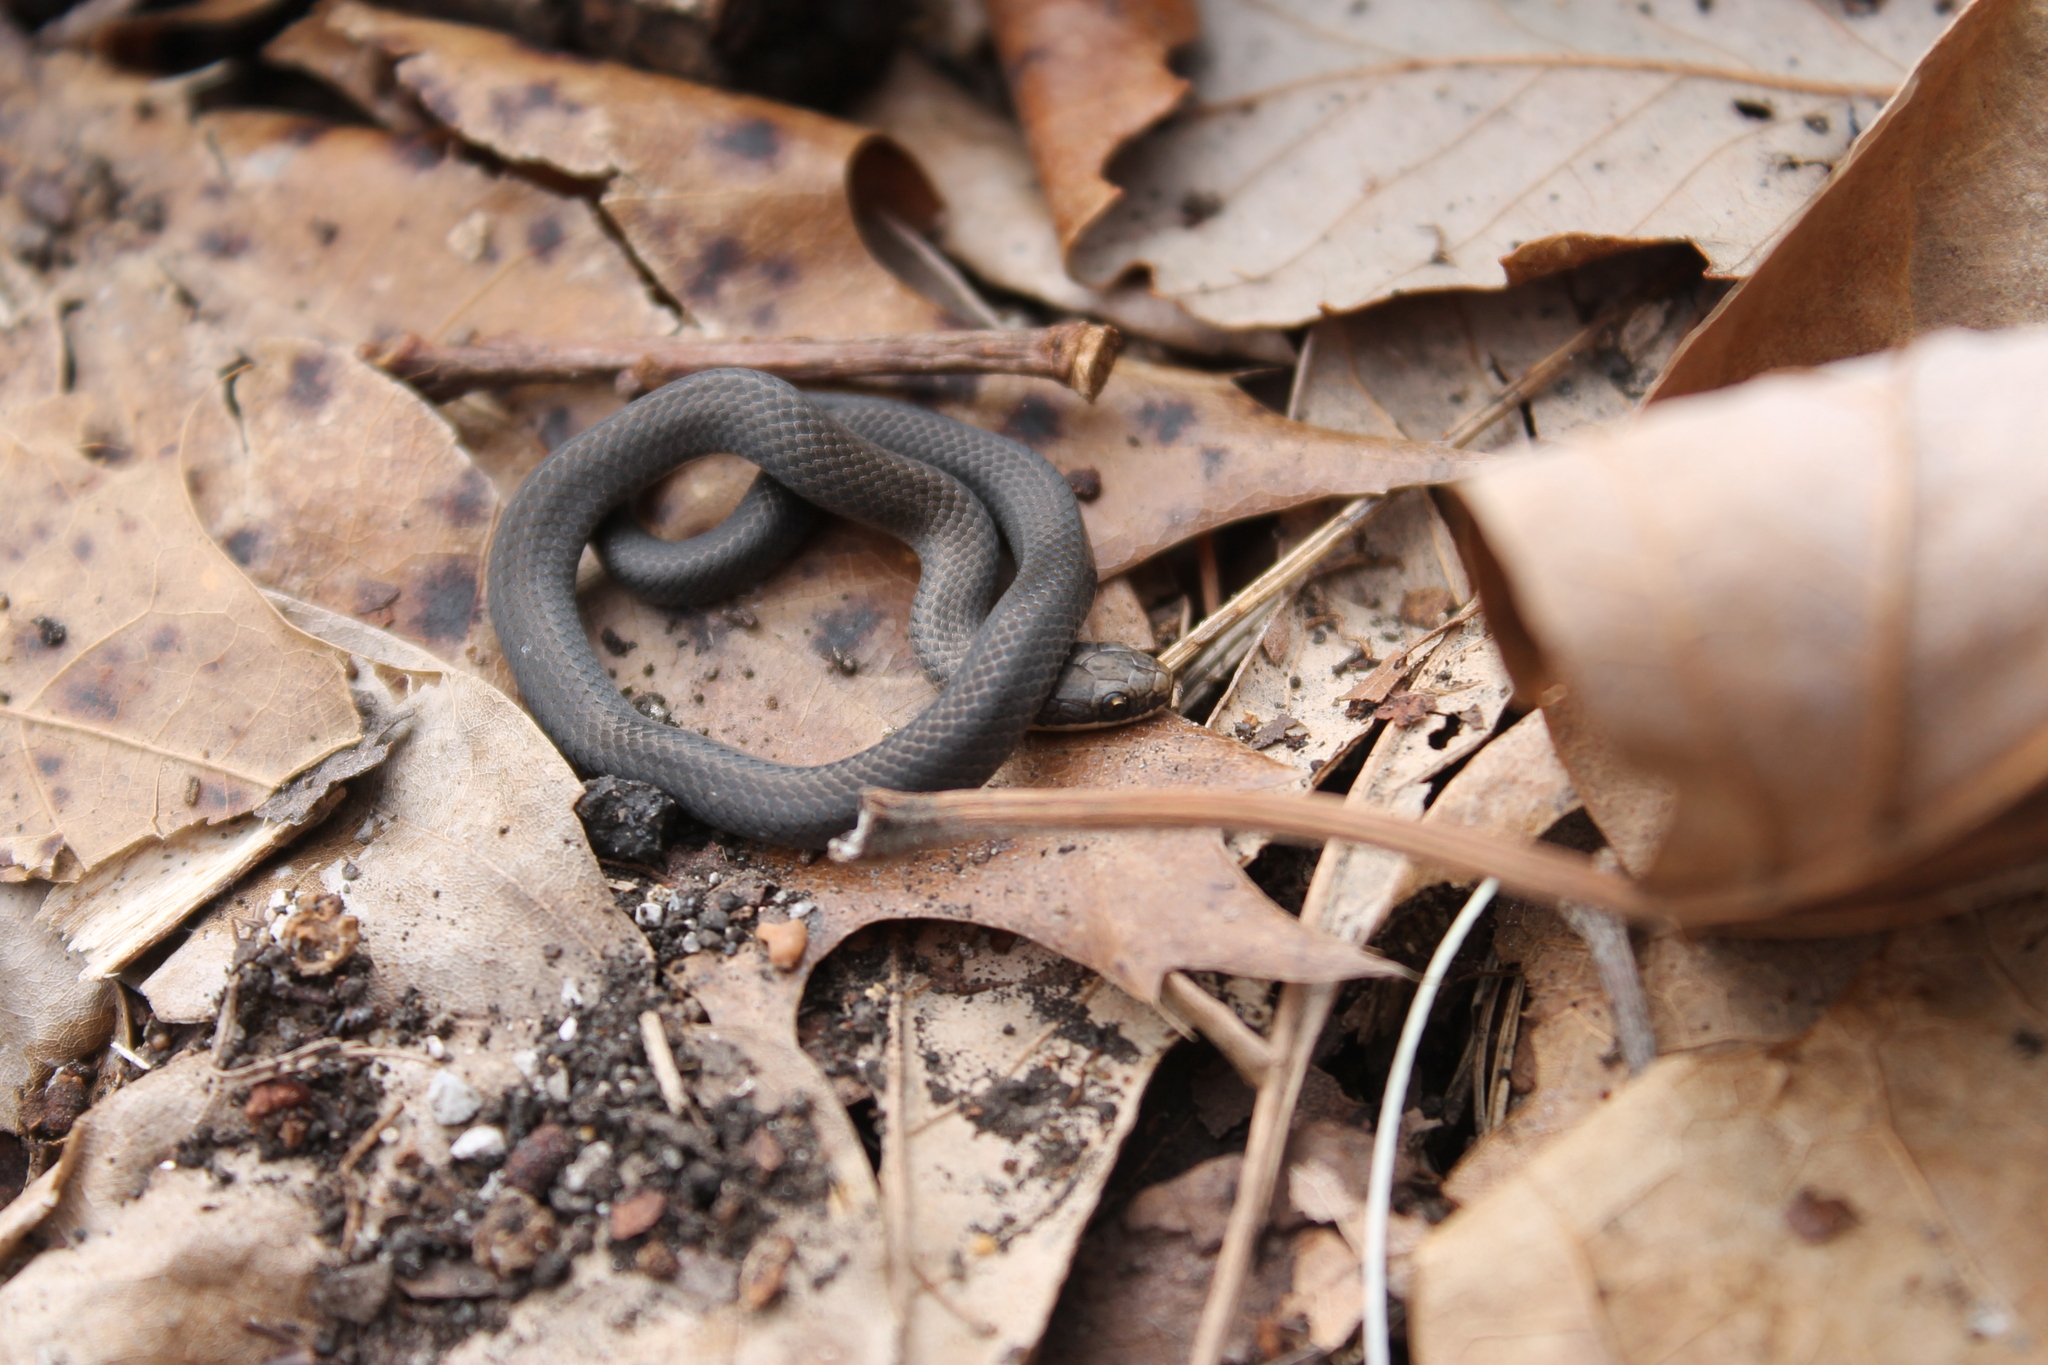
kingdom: Animalia
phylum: Chordata
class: Squamata
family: Colubridae
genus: Diadophis
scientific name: Diadophis punctatus
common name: Ringneck snake
